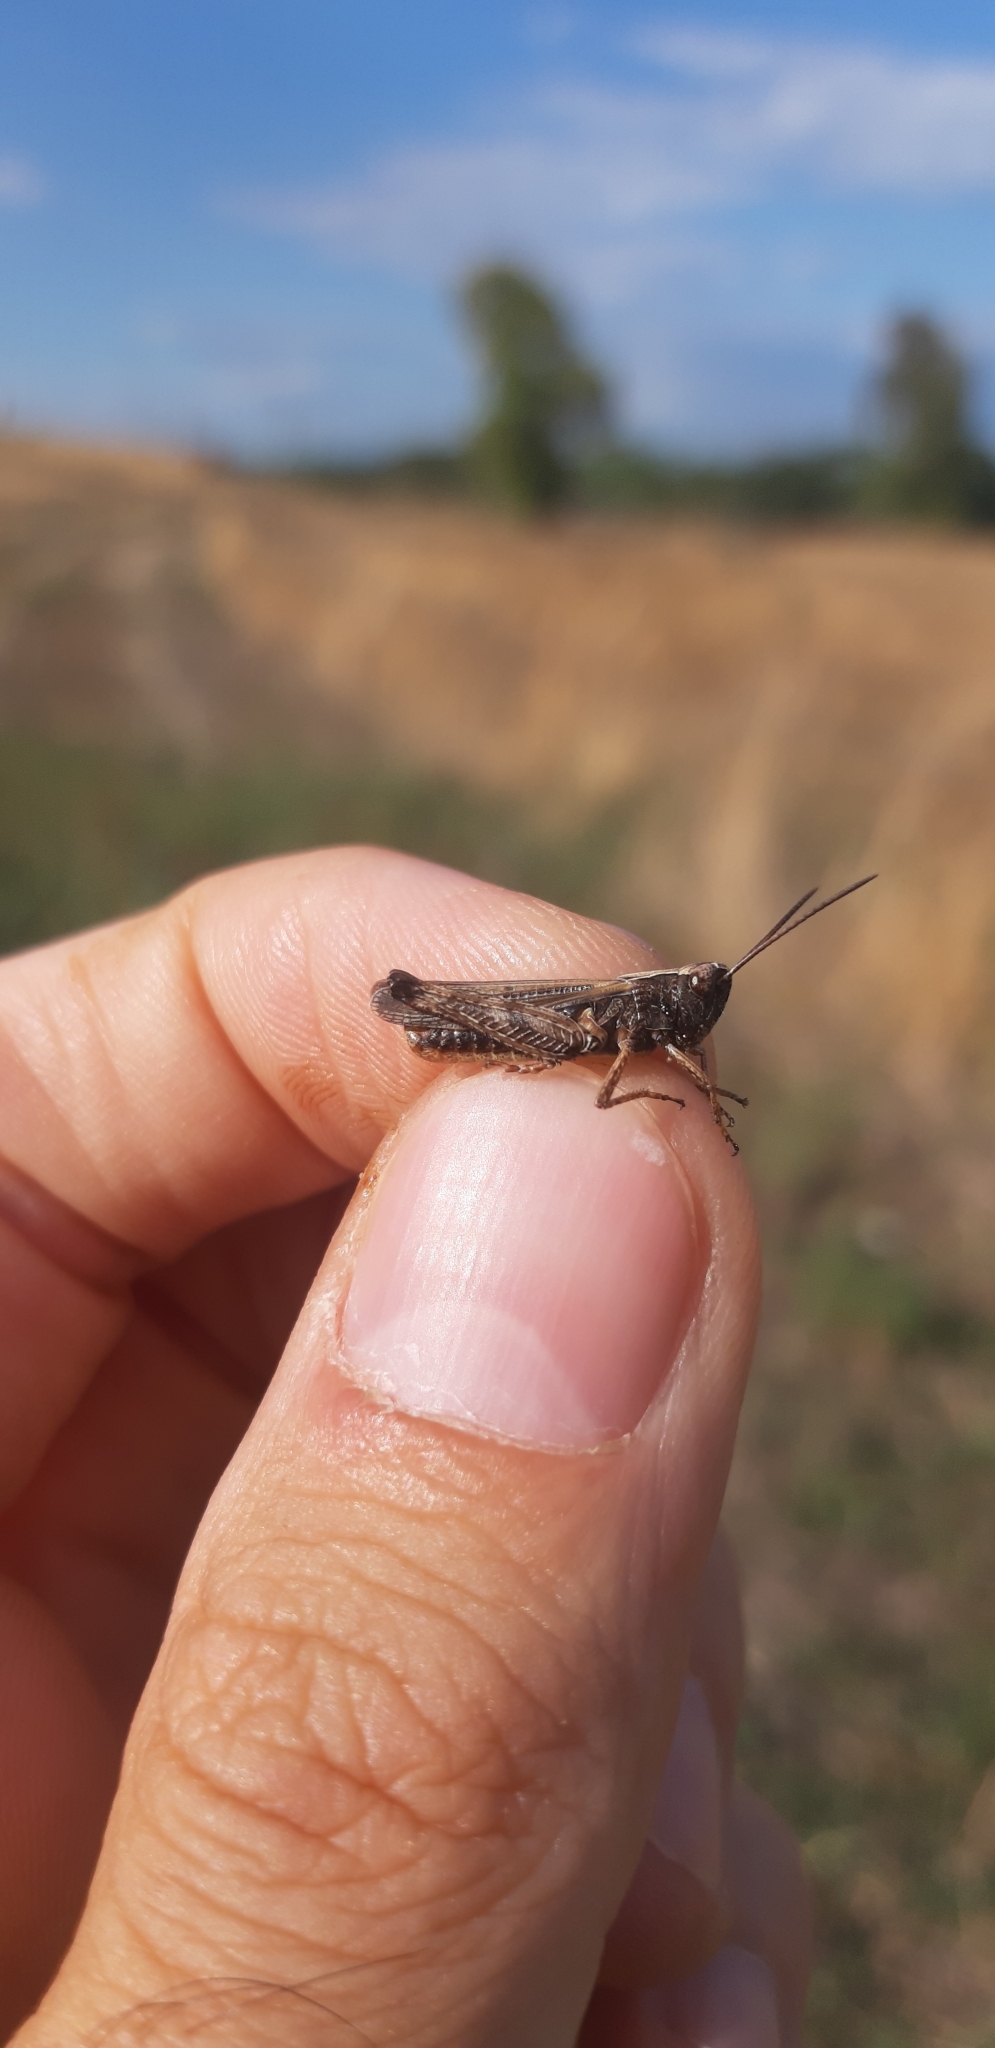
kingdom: Animalia
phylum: Arthropoda
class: Insecta
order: Orthoptera
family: Acrididae
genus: Omocestus
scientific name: Omocestus rufipes
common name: Woodland grasshopper
